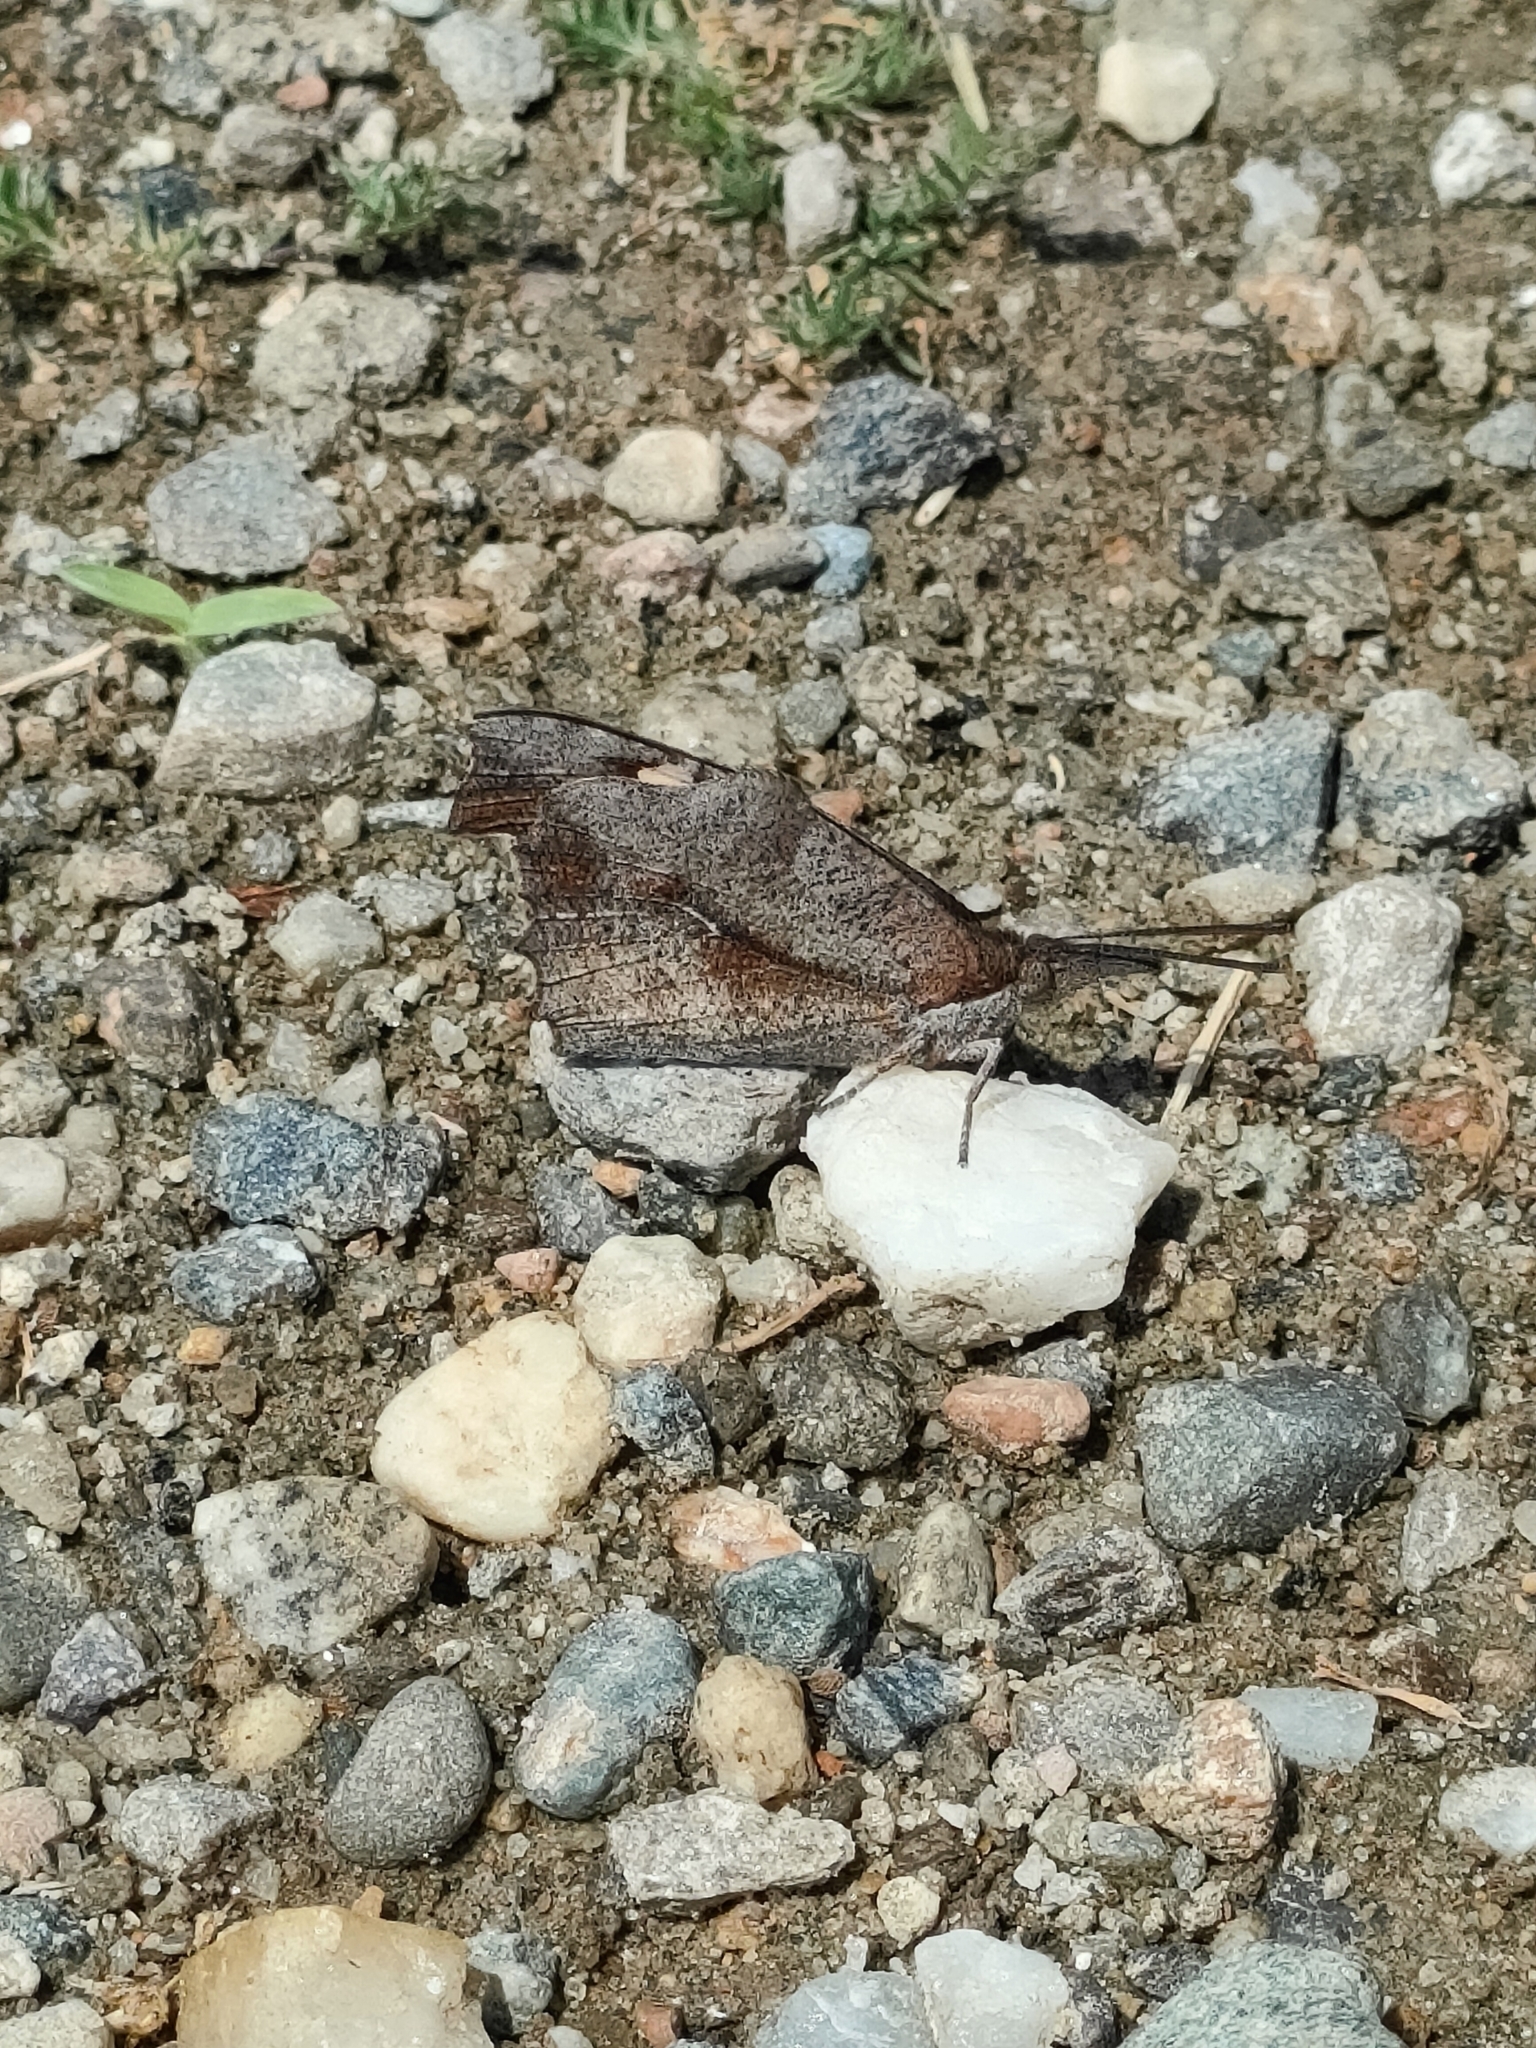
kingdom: Animalia
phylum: Arthropoda
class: Insecta
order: Lepidoptera
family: Nymphalidae
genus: Libythea
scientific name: Libythea celtis
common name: Nettle-tree butterfly
